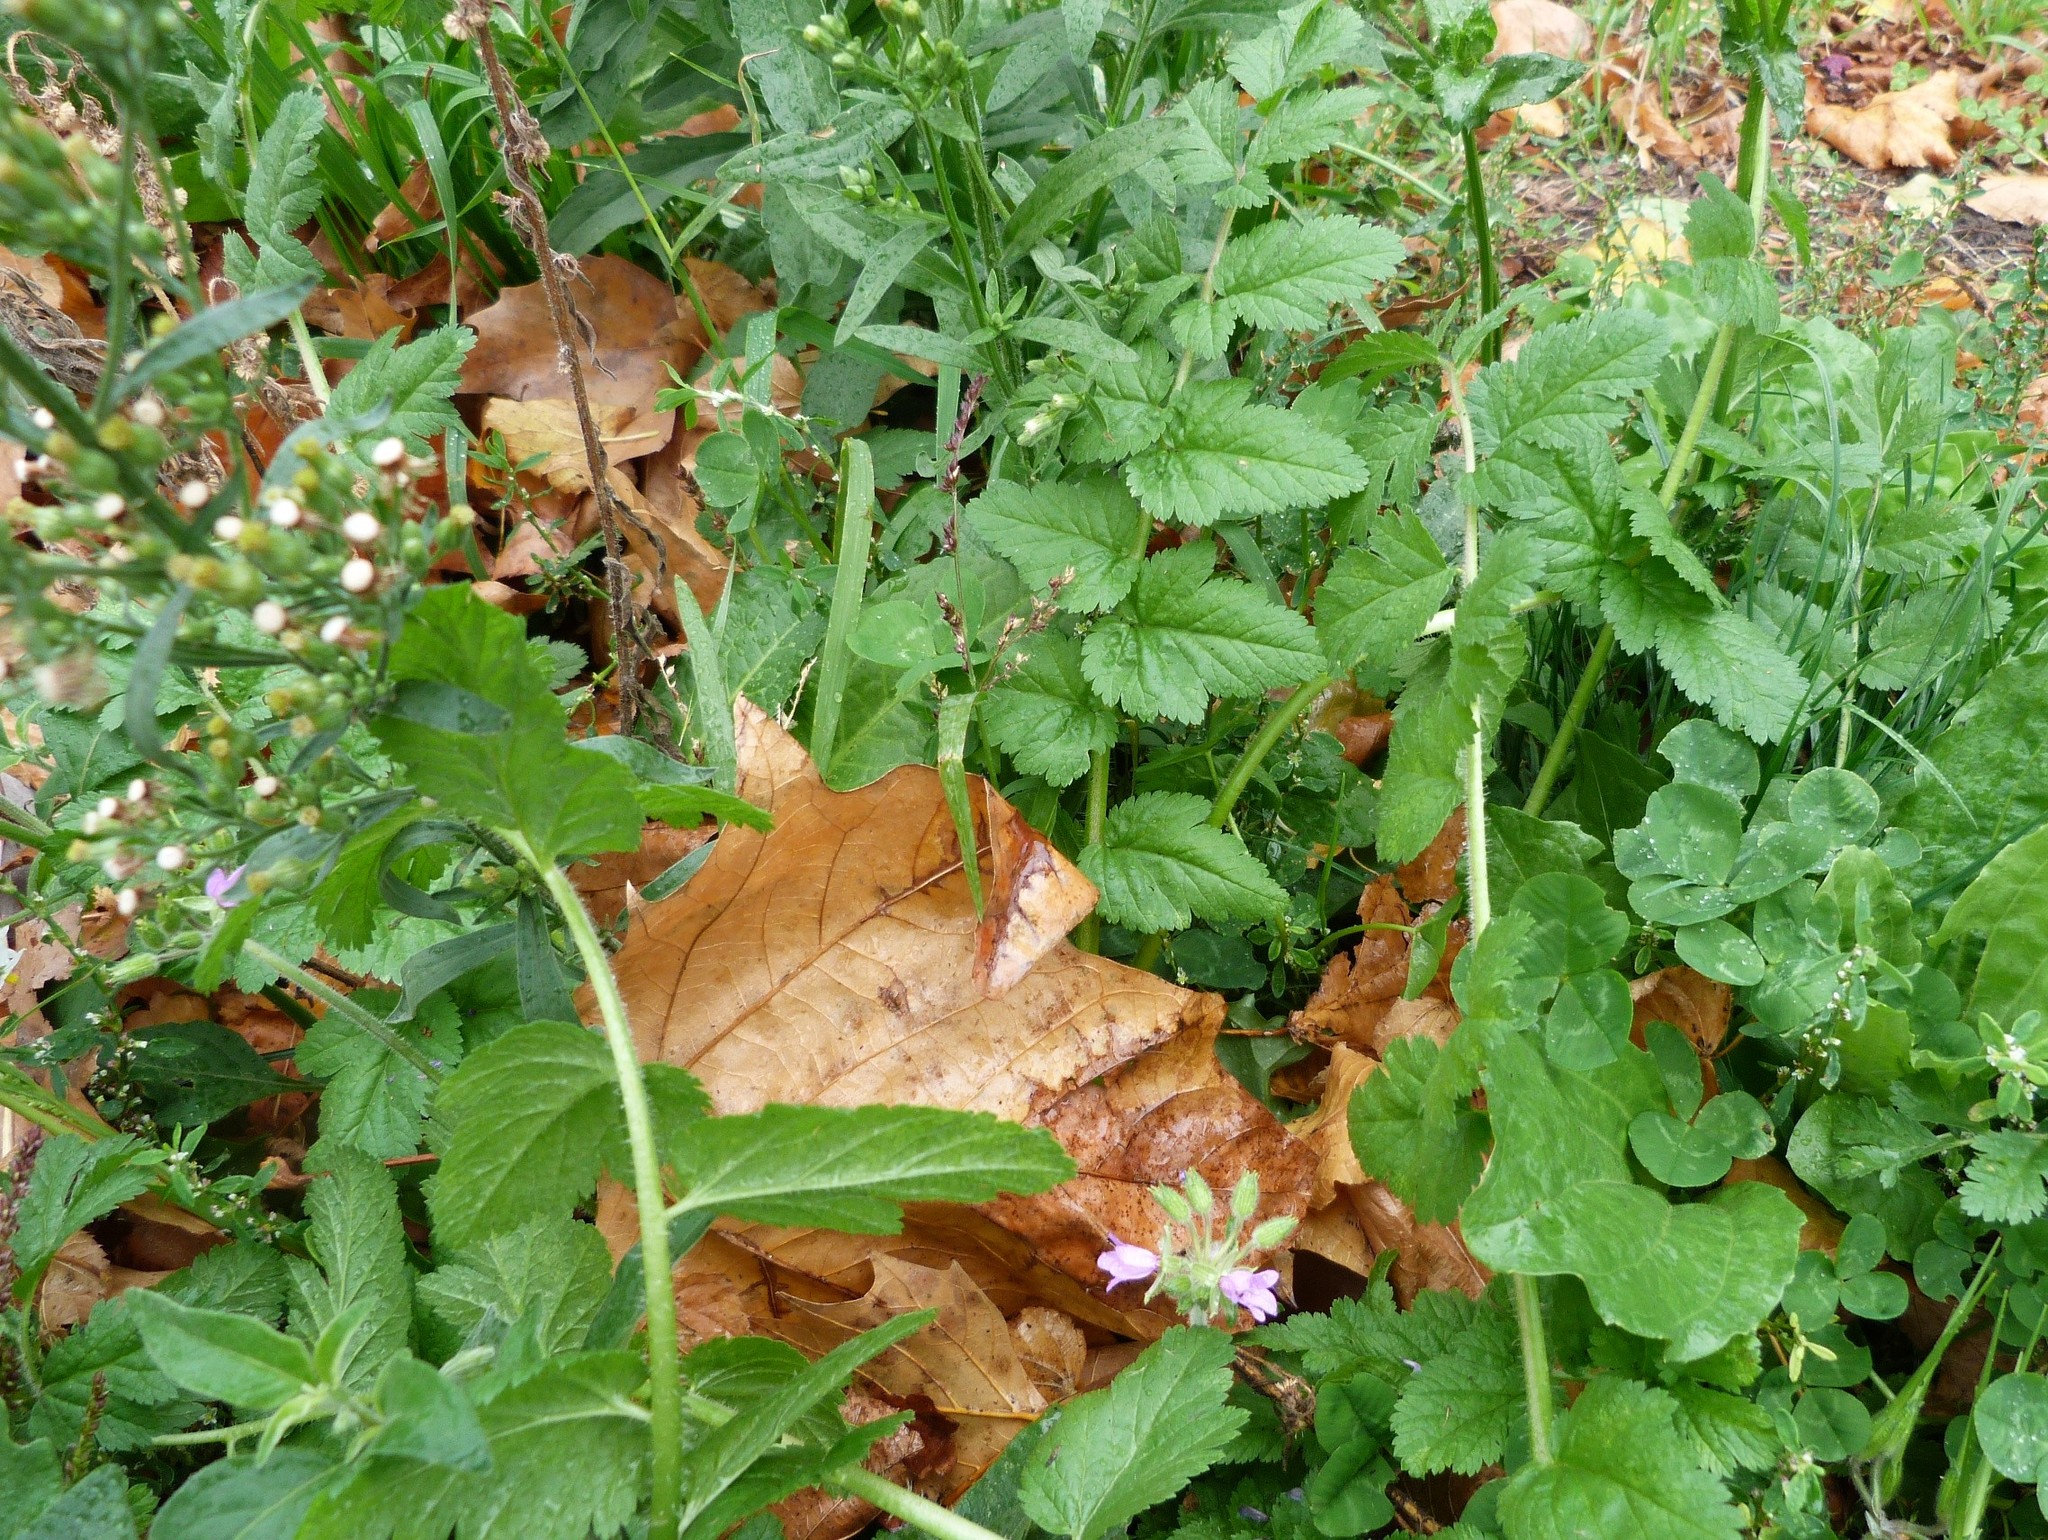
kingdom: Plantae
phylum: Tracheophyta
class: Magnoliopsida
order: Geraniales
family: Geraniaceae
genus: Erodium
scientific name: Erodium moschatum
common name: Musk stork's-bill
